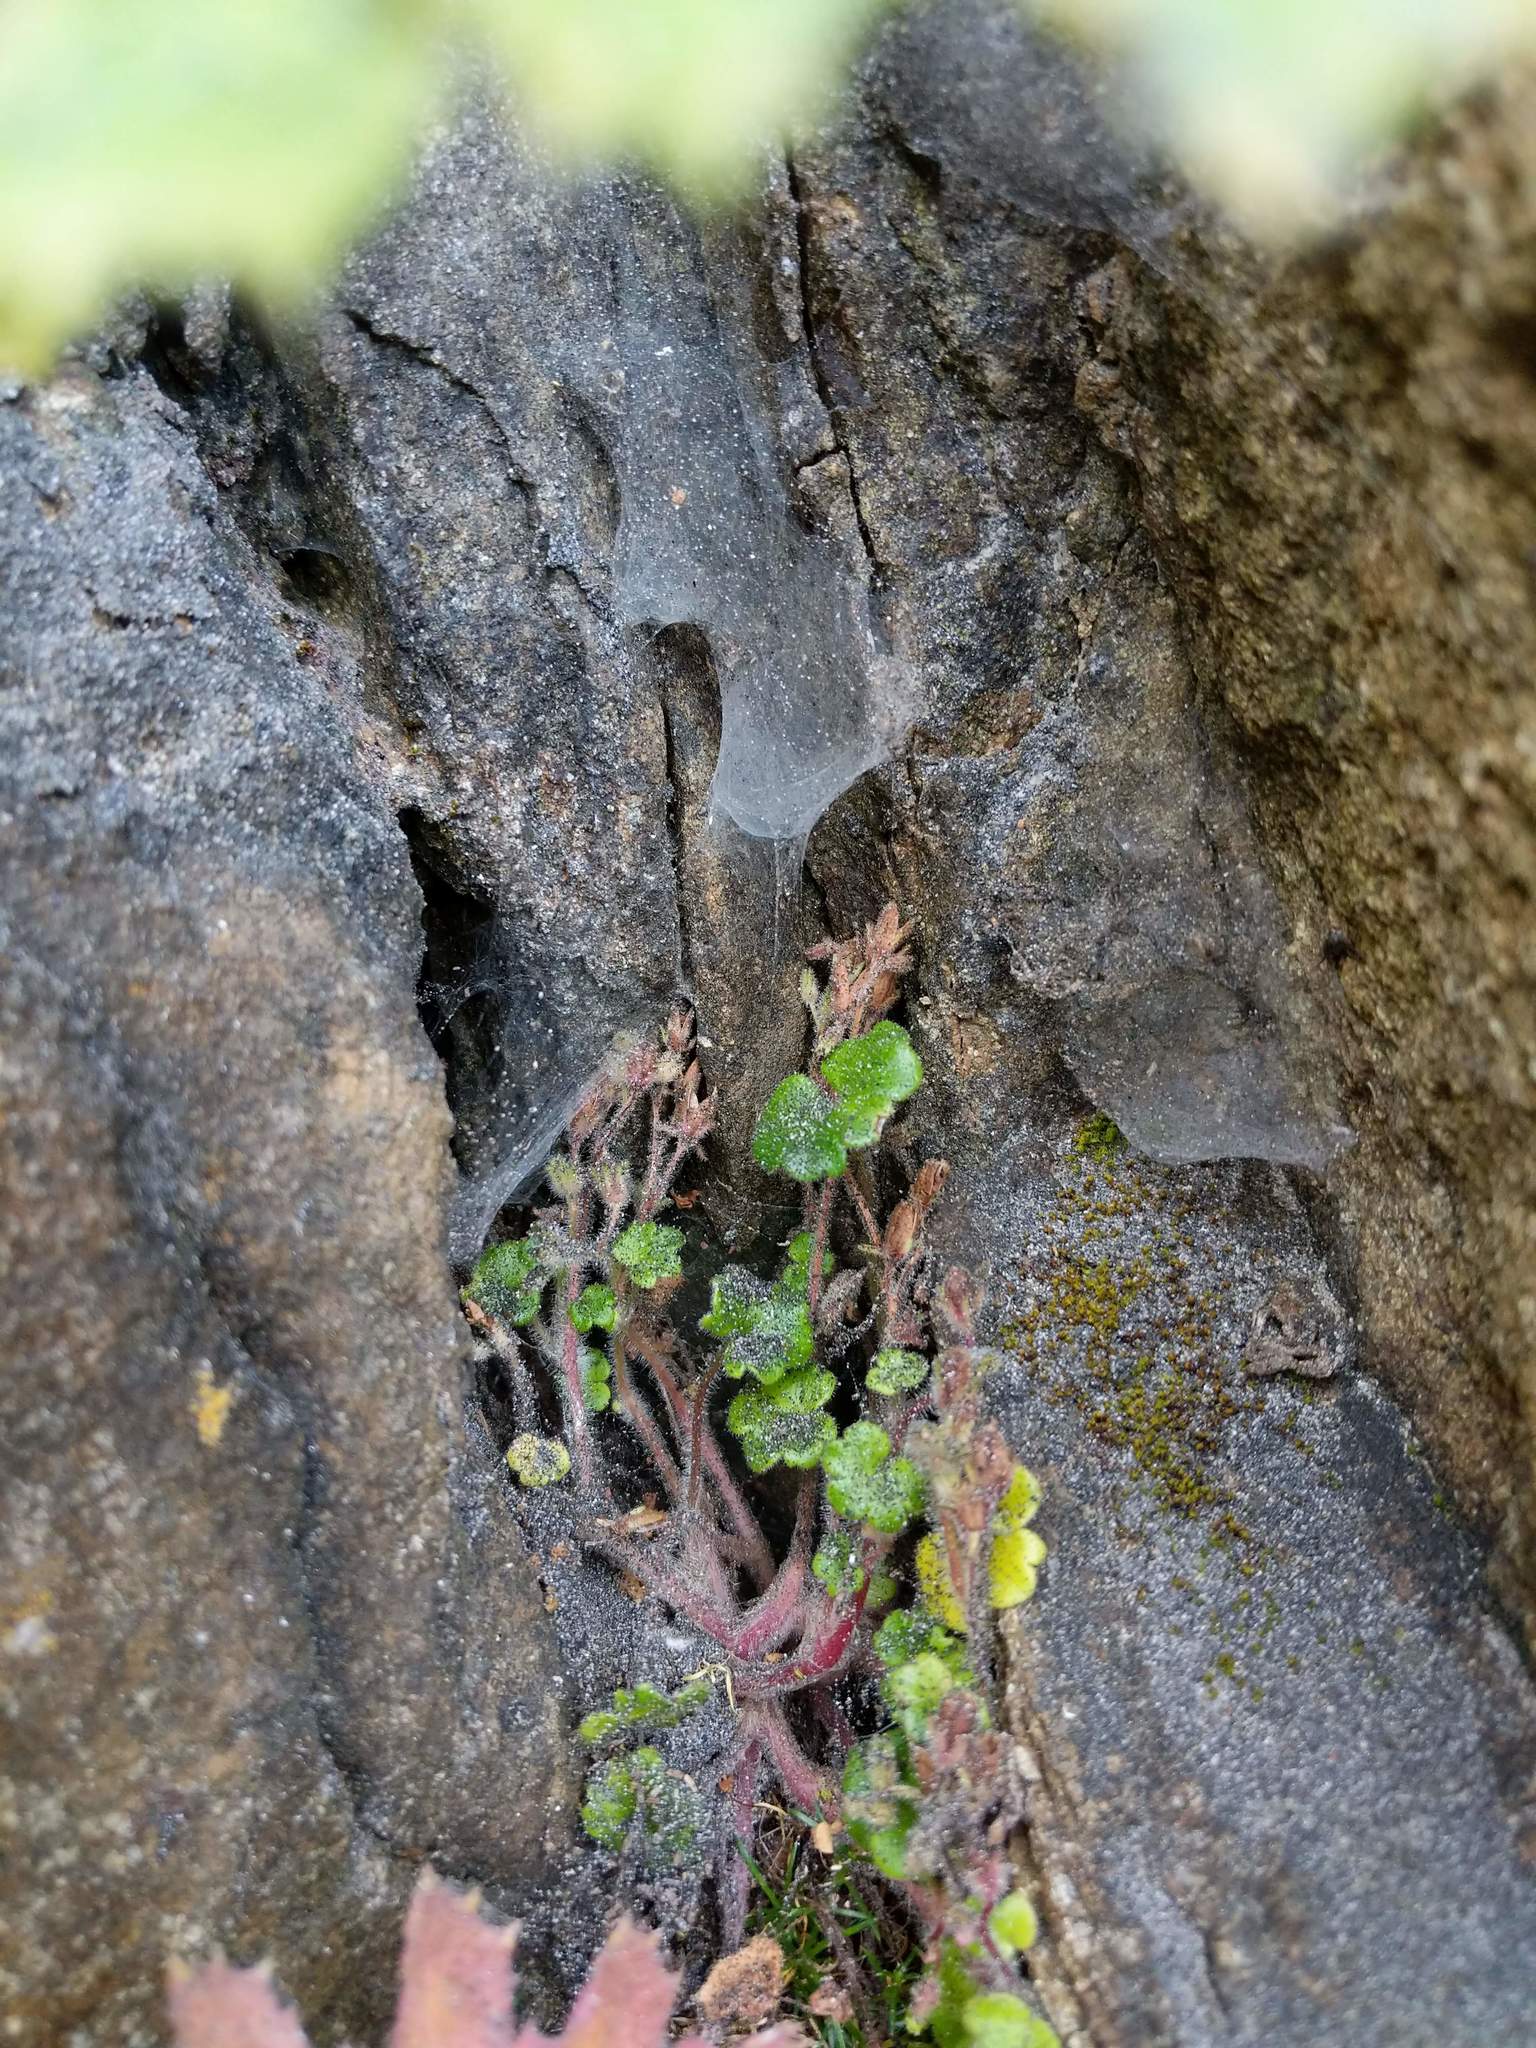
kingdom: Plantae
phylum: Tracheophyta
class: Magnoliopsida
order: Boraginales
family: Hydrophyllaceae
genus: Romanzoffia
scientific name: Romanzoffia tracyi
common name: Tracy's mistmaid
